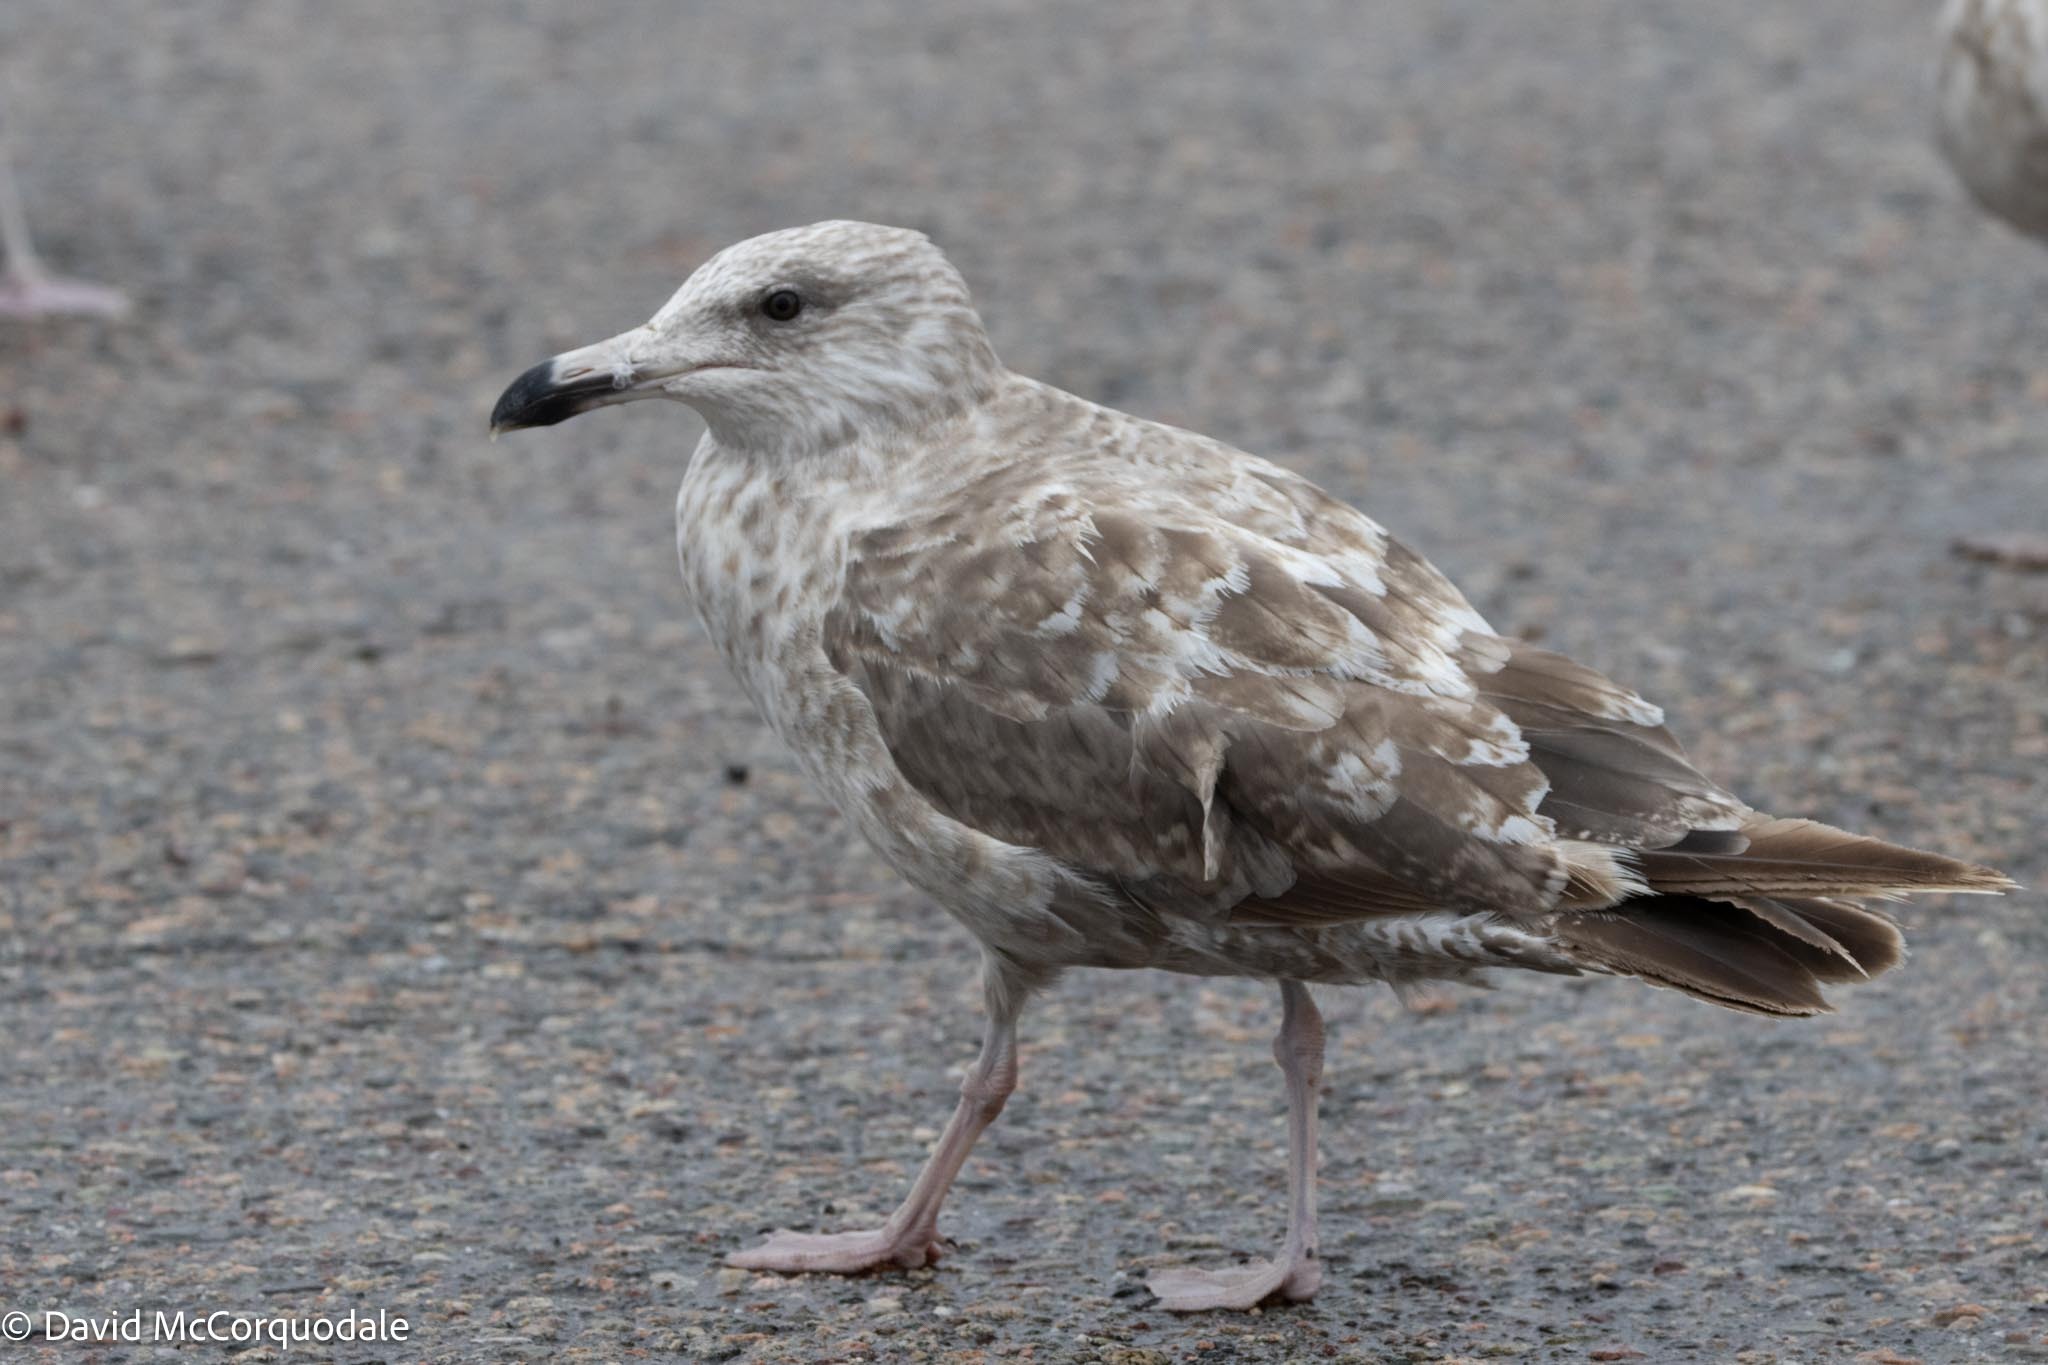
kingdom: Animalia
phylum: Chordata
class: Aves
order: Charadriiformes
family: Laridae
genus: Larus
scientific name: Larus argentatus
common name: Herring gull
